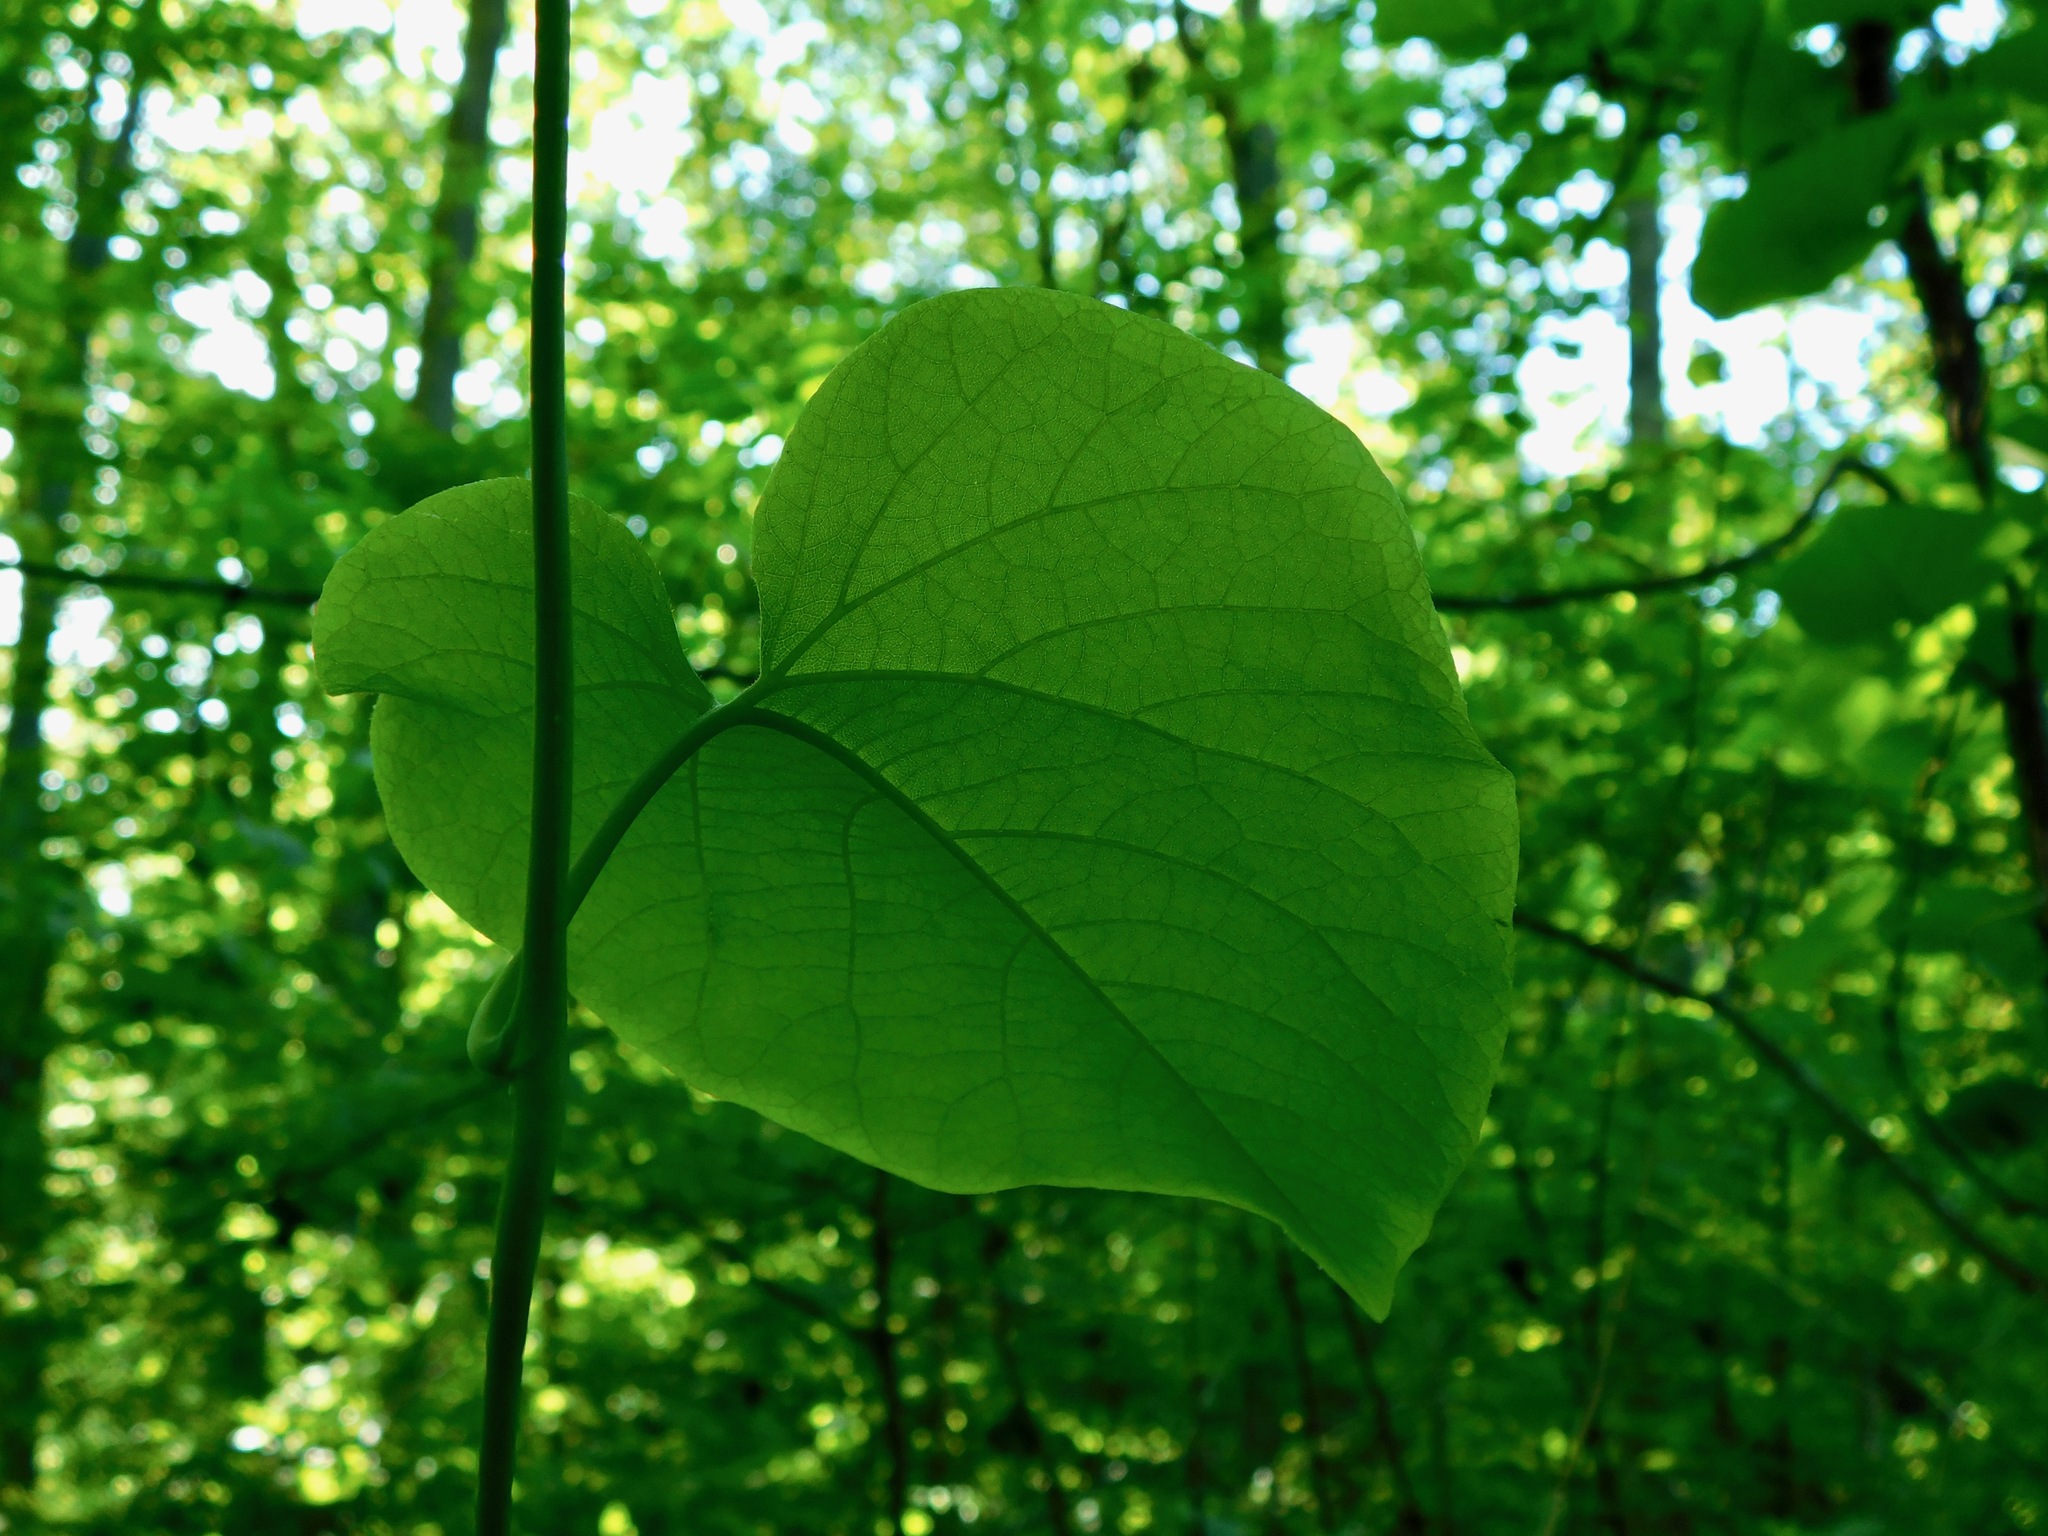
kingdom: Plantae
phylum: Tracheophyta
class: Magnoliopsida
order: Piperales
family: Aristolochiaceae
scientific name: Aristolochiaceae
